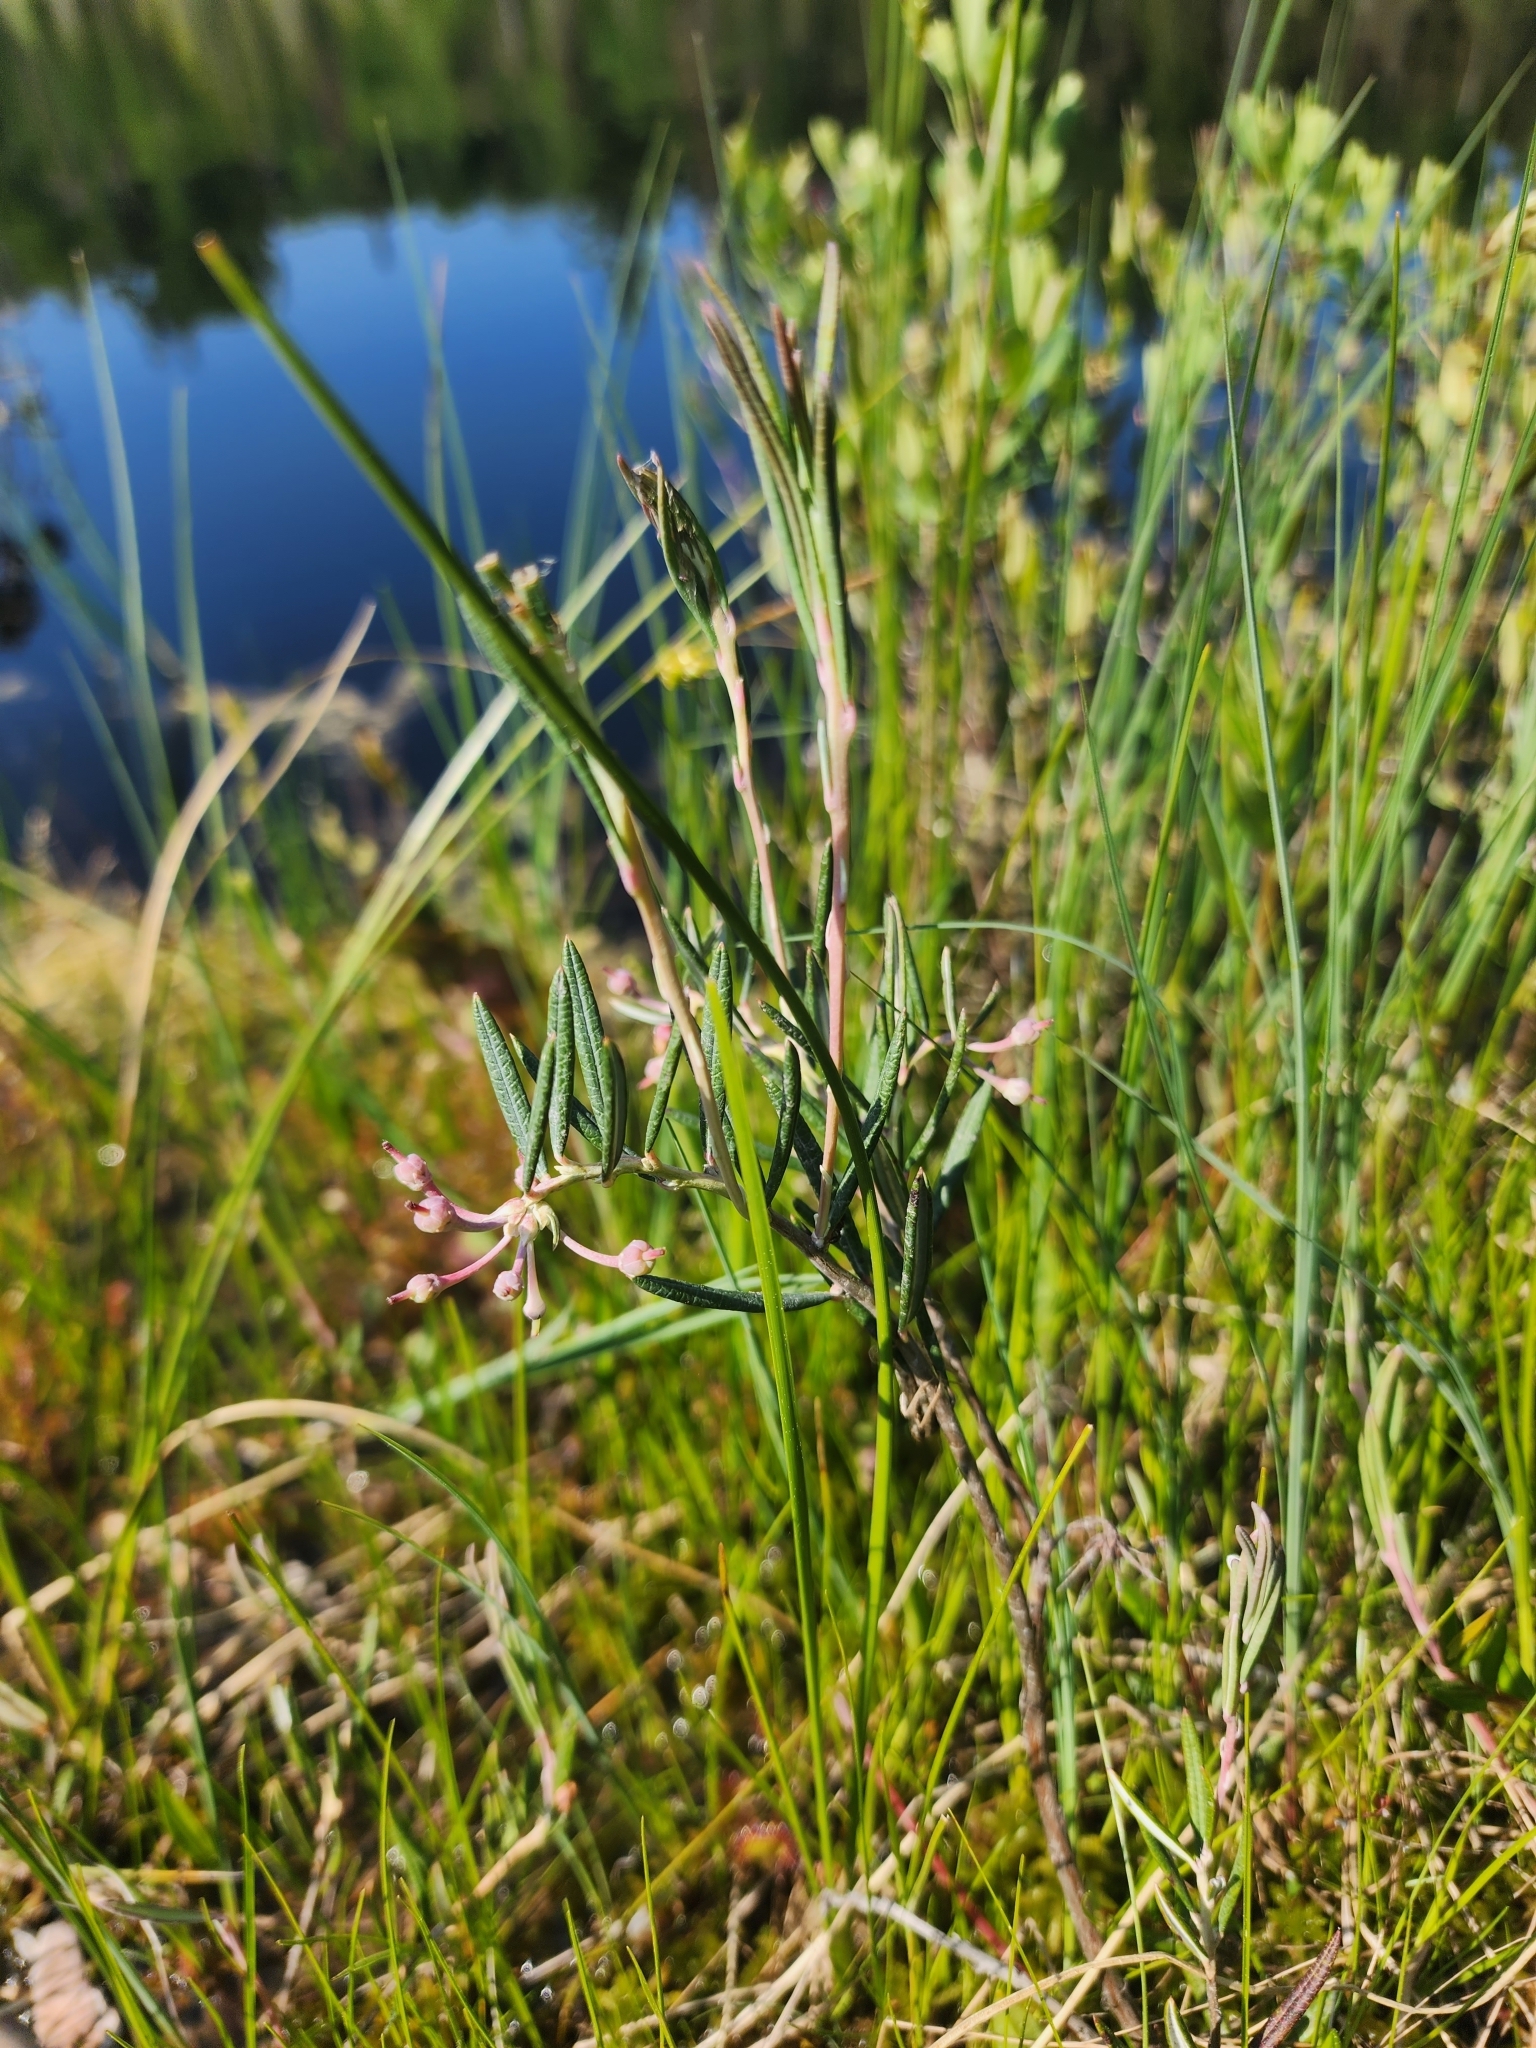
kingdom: Plantae
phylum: Tracheophyta
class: Magnoliopsida
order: Ericales
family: Ericaceae
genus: Andromeda
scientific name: Andromeda polifolia
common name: Bog-rosemary
